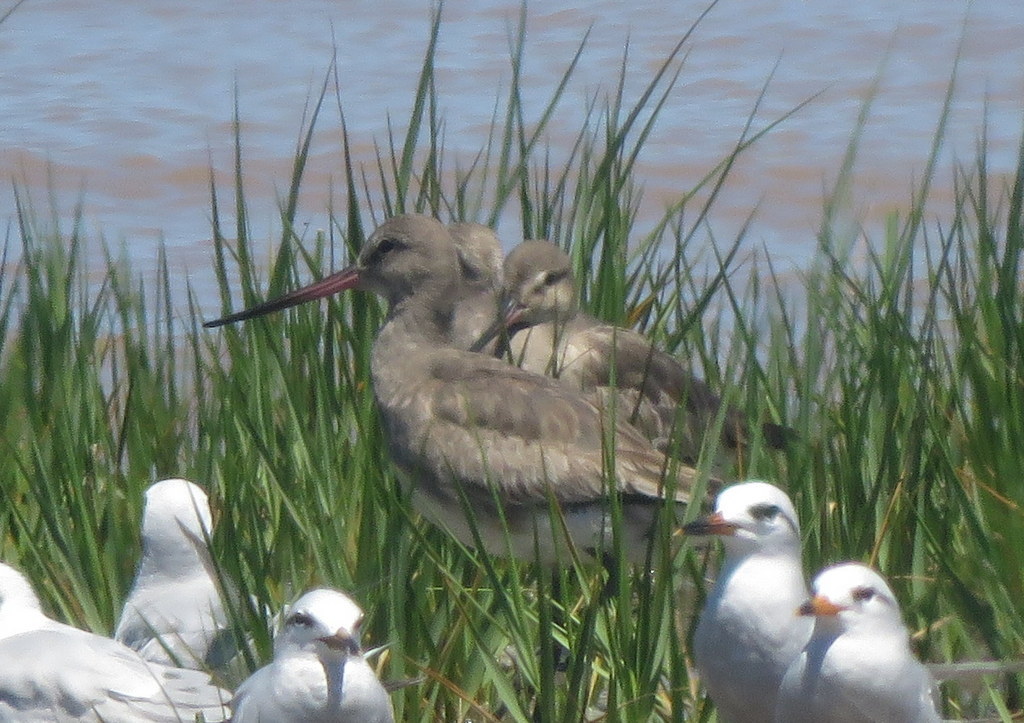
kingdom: Animalia
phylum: Chordata
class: Aves
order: Charadriiformes
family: Scolopacidae
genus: Limosa
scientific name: Limosa haemastica
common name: Hudsonian godwit
